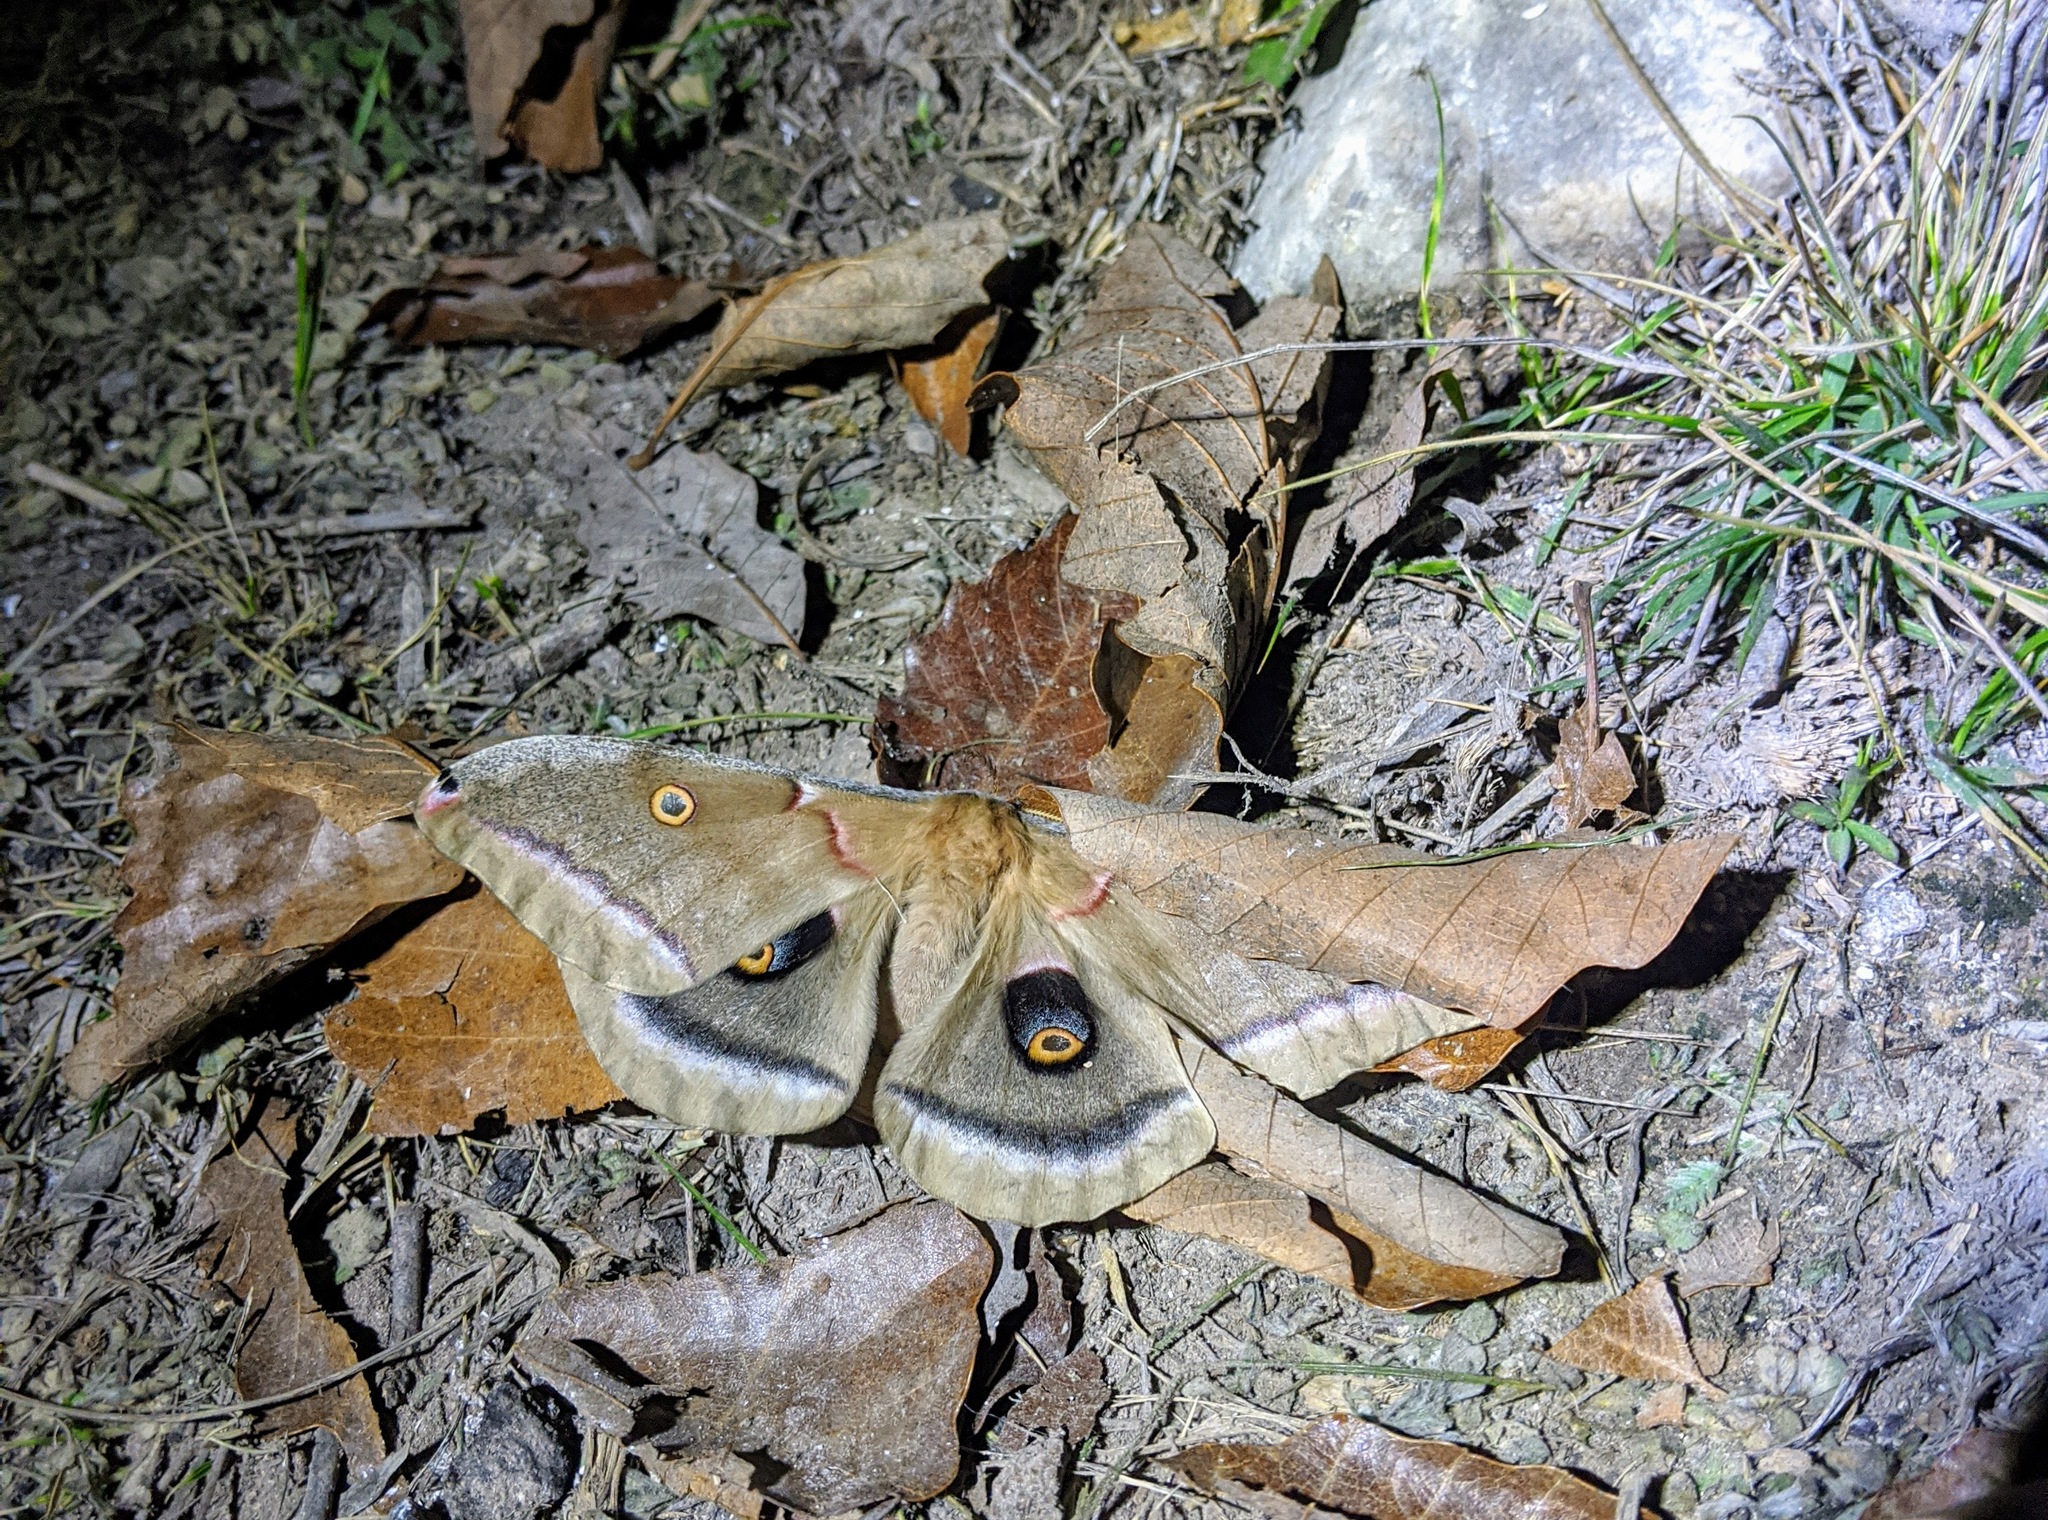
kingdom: Animalia
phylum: Arthropoda
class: Insecta
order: Lepidoptera
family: Saturniidae
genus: Antheraea
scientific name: Antheraea polyphemus
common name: Polyphemus moth
